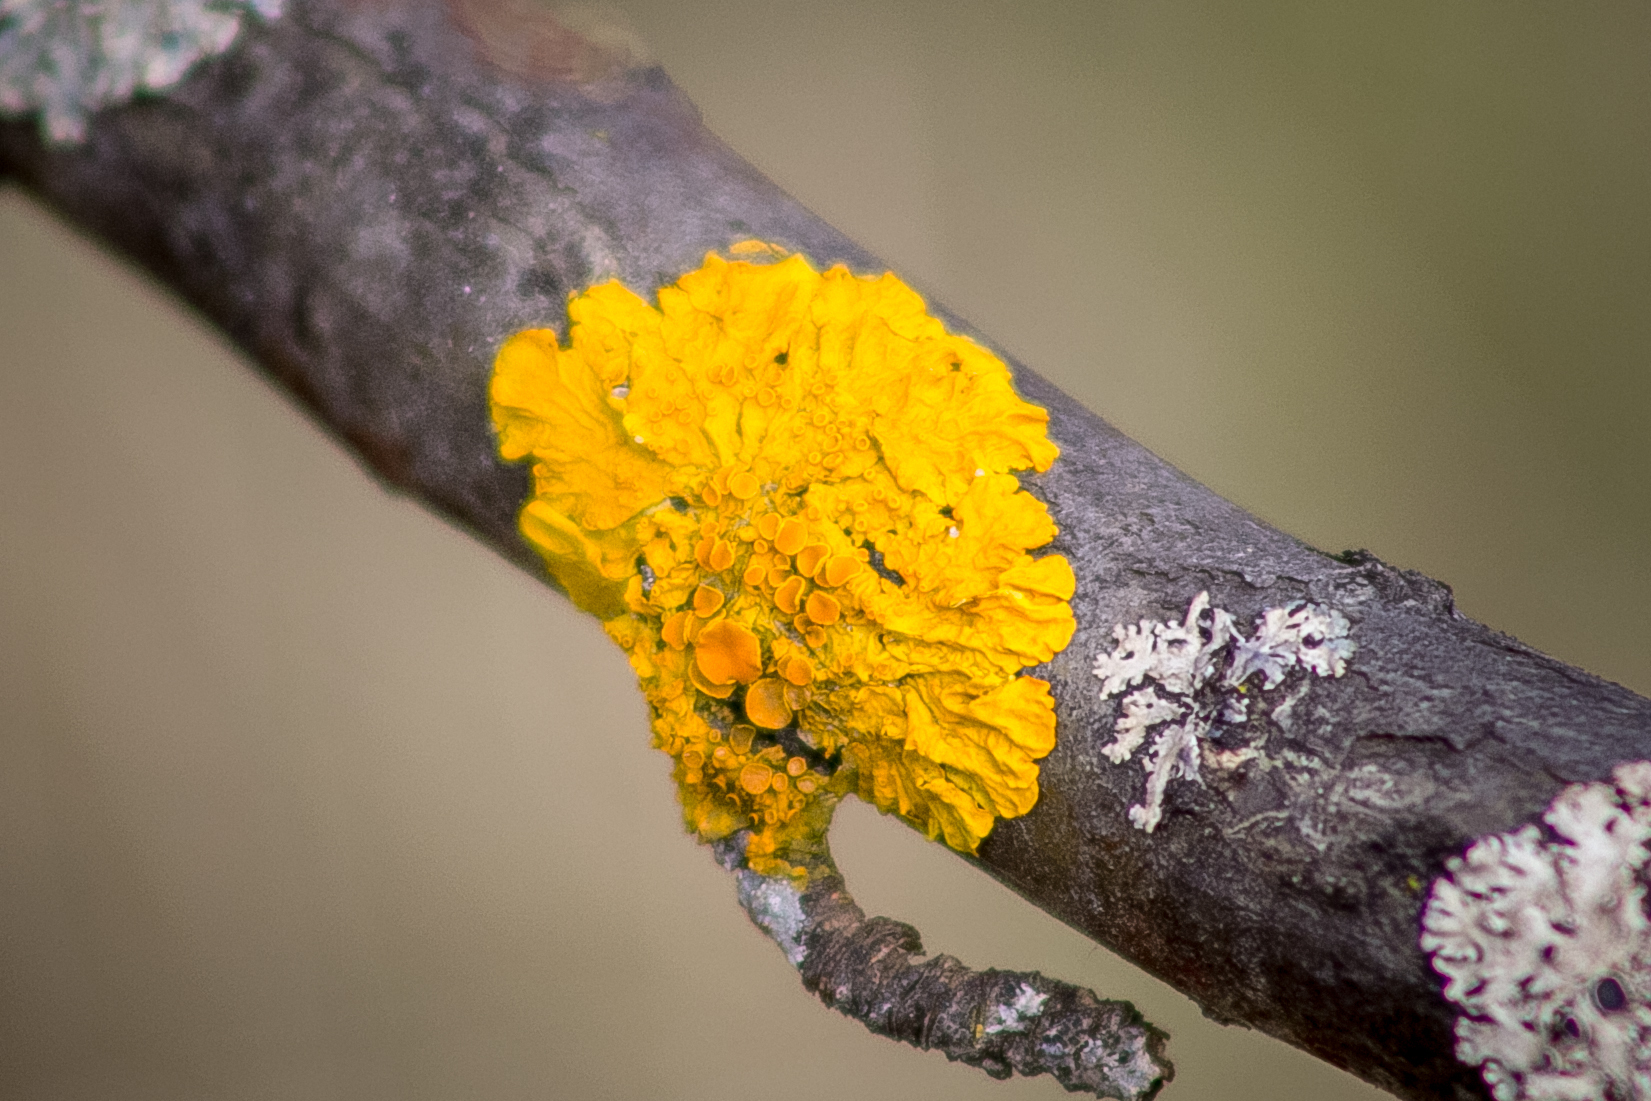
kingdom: Fungi
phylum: Ascomycota
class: Lecanoromycetes
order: Teloschistales
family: Teloschistaceae
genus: Xanthoria
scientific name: Xanthoria parietina
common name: Common orange lichen
